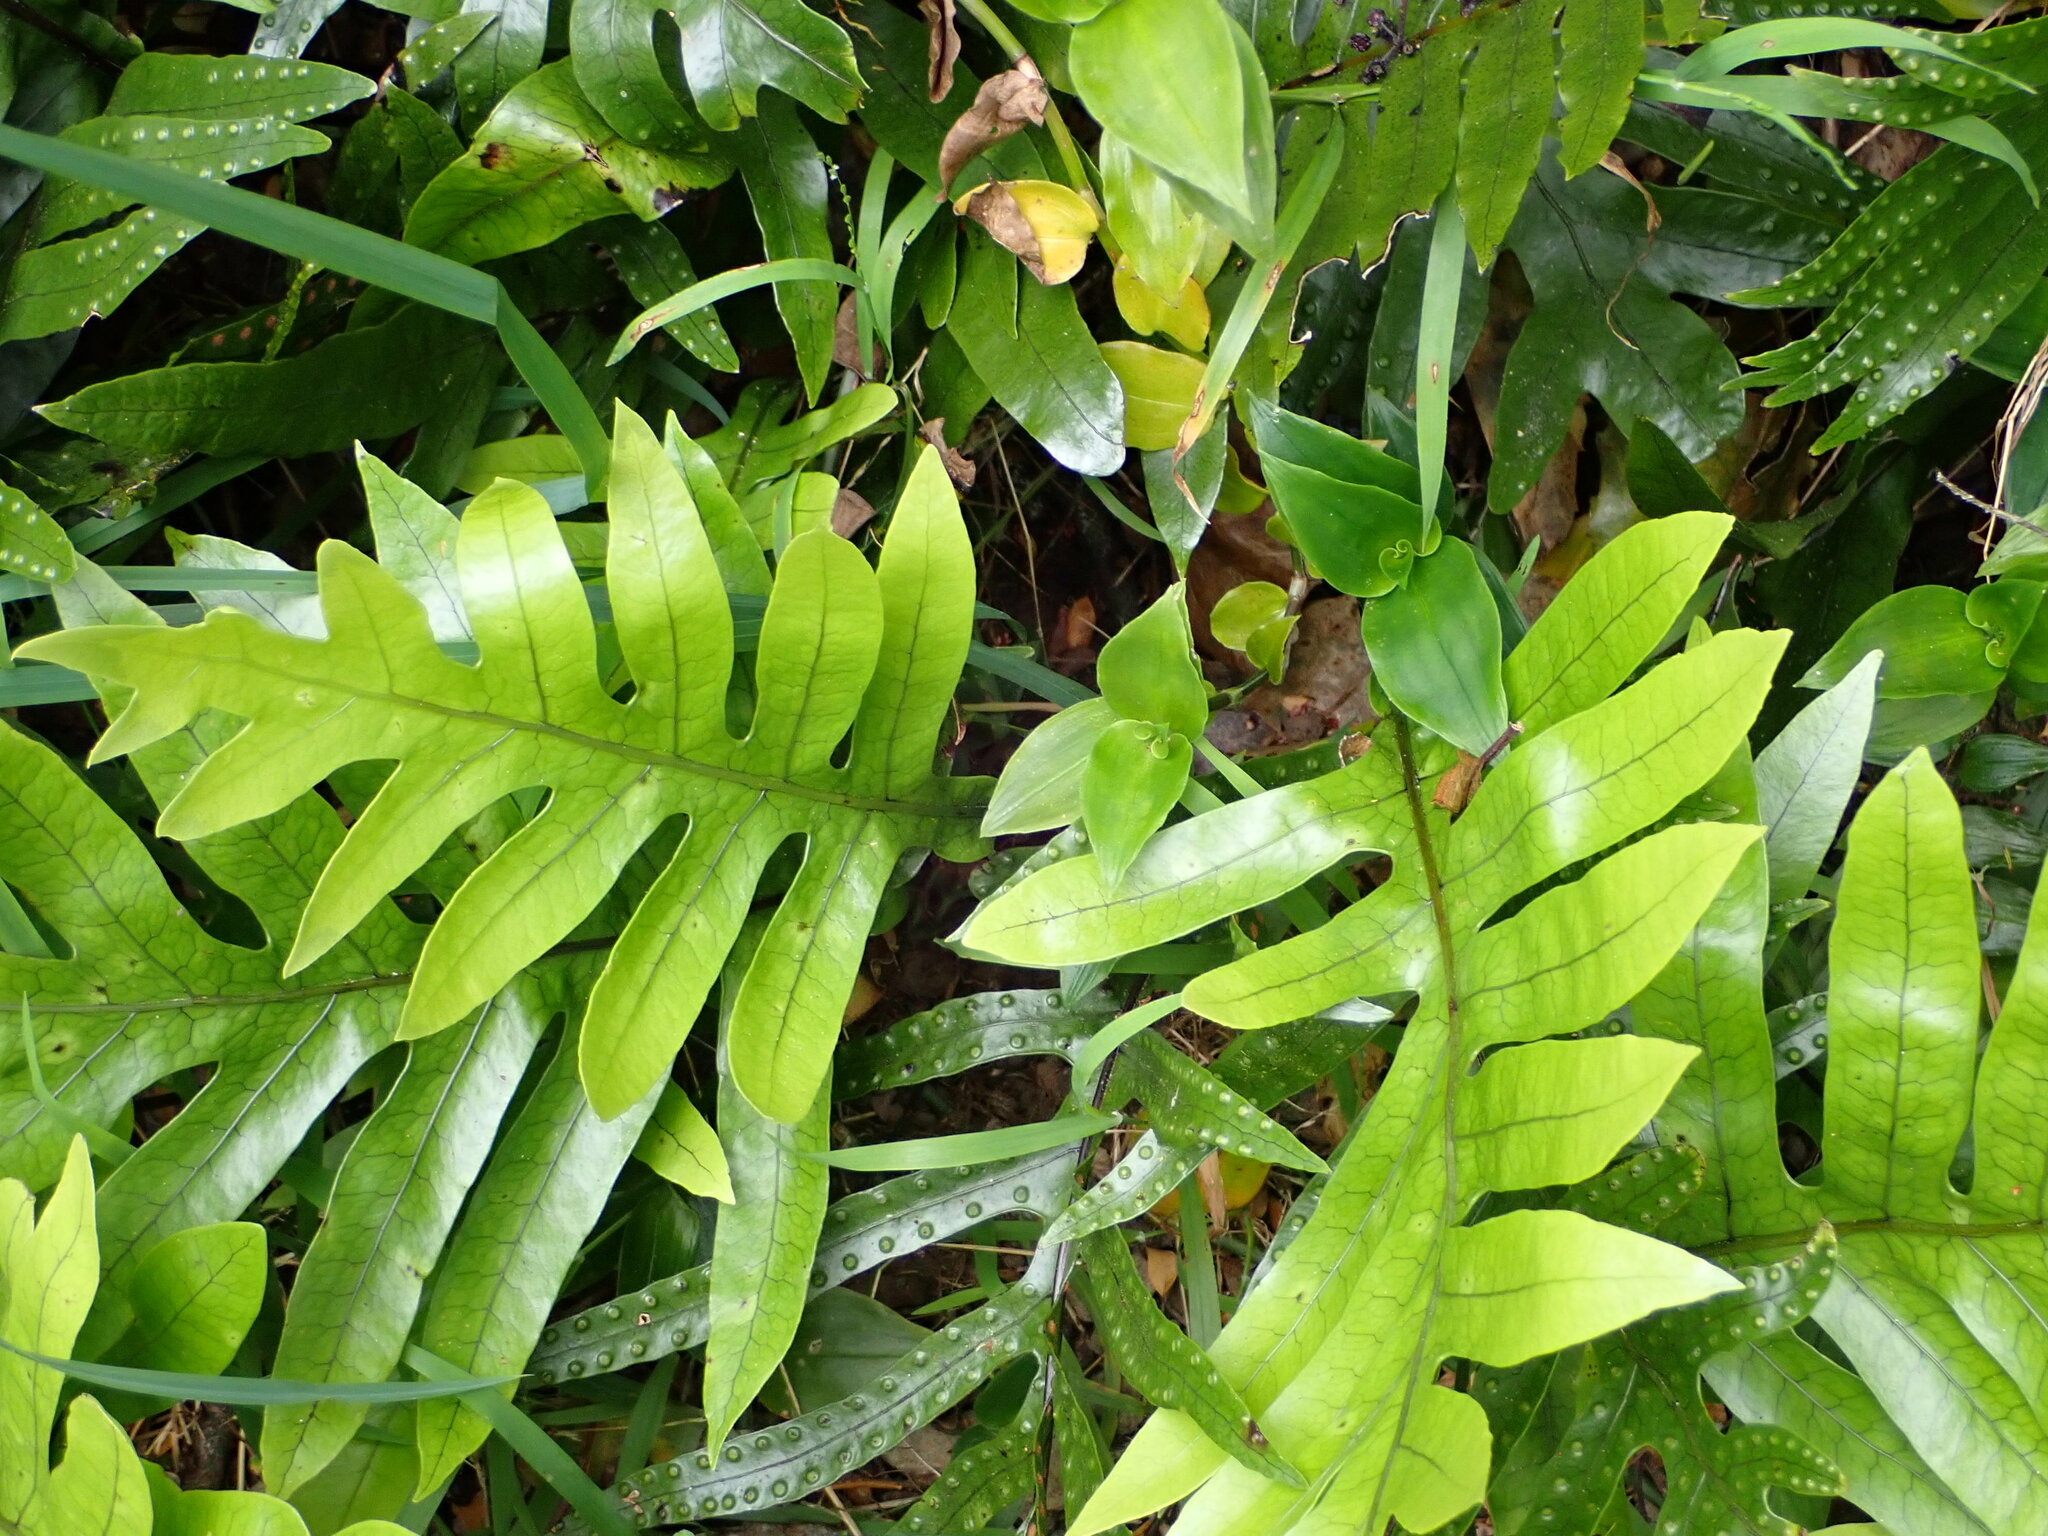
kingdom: Plantae
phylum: Tracheophyta
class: Polypodiopsida
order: Polypodiales
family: Polypodiaceae
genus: Lecanopteris
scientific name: Lecanopteris pustulata
